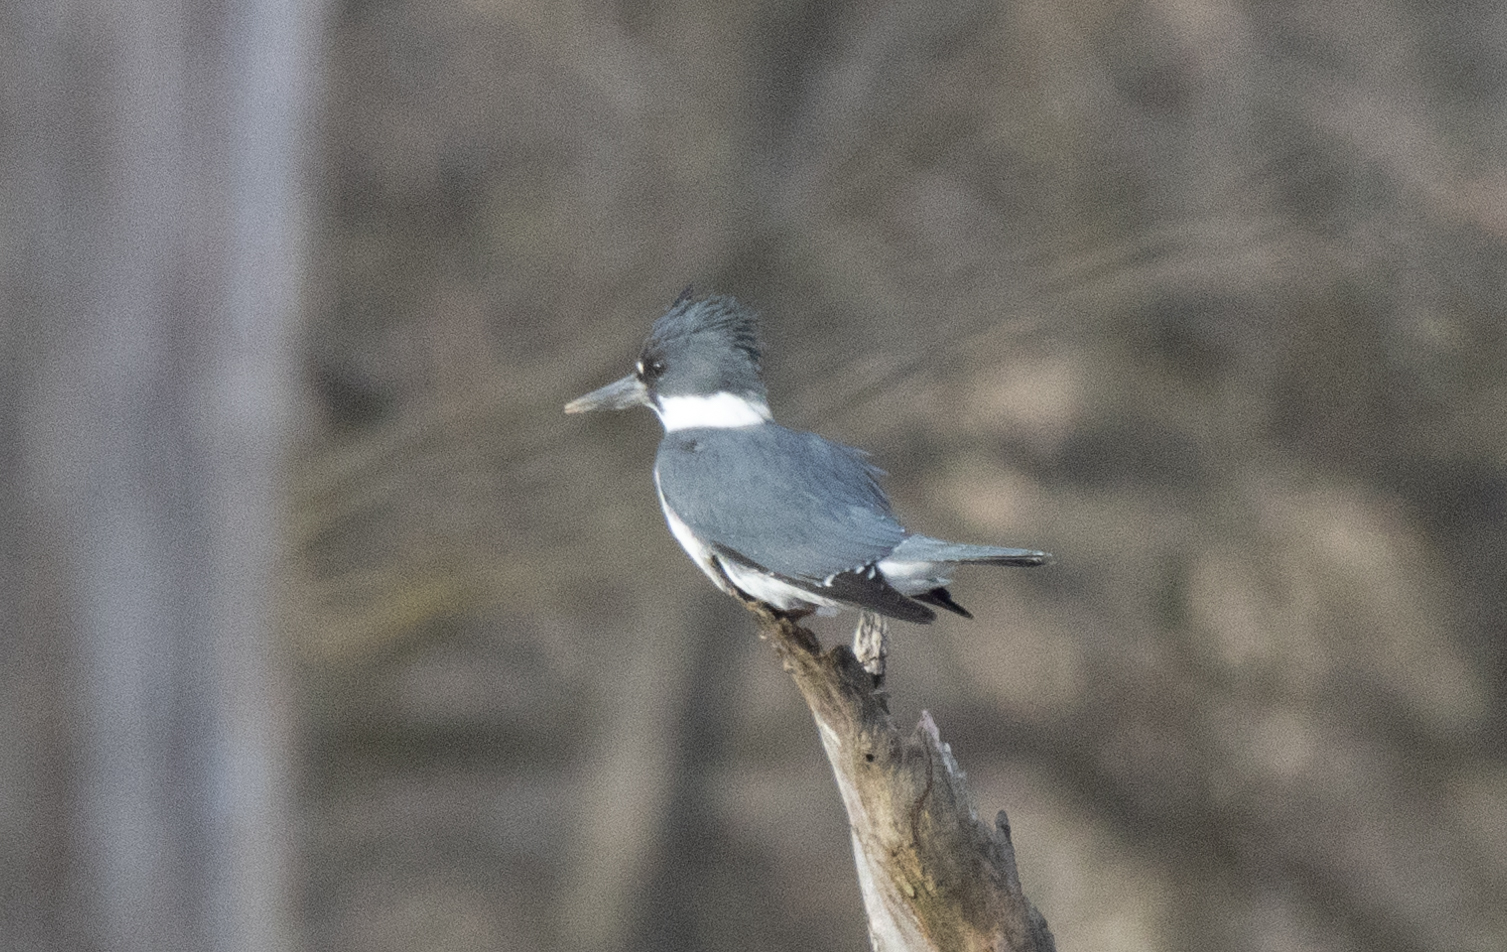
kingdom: Animalia
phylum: Chordata
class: Aves
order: Coraciiformes
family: Alcedinidae
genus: Megaceryle
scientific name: Megaceryle alcyon
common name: Belted kingfisher
